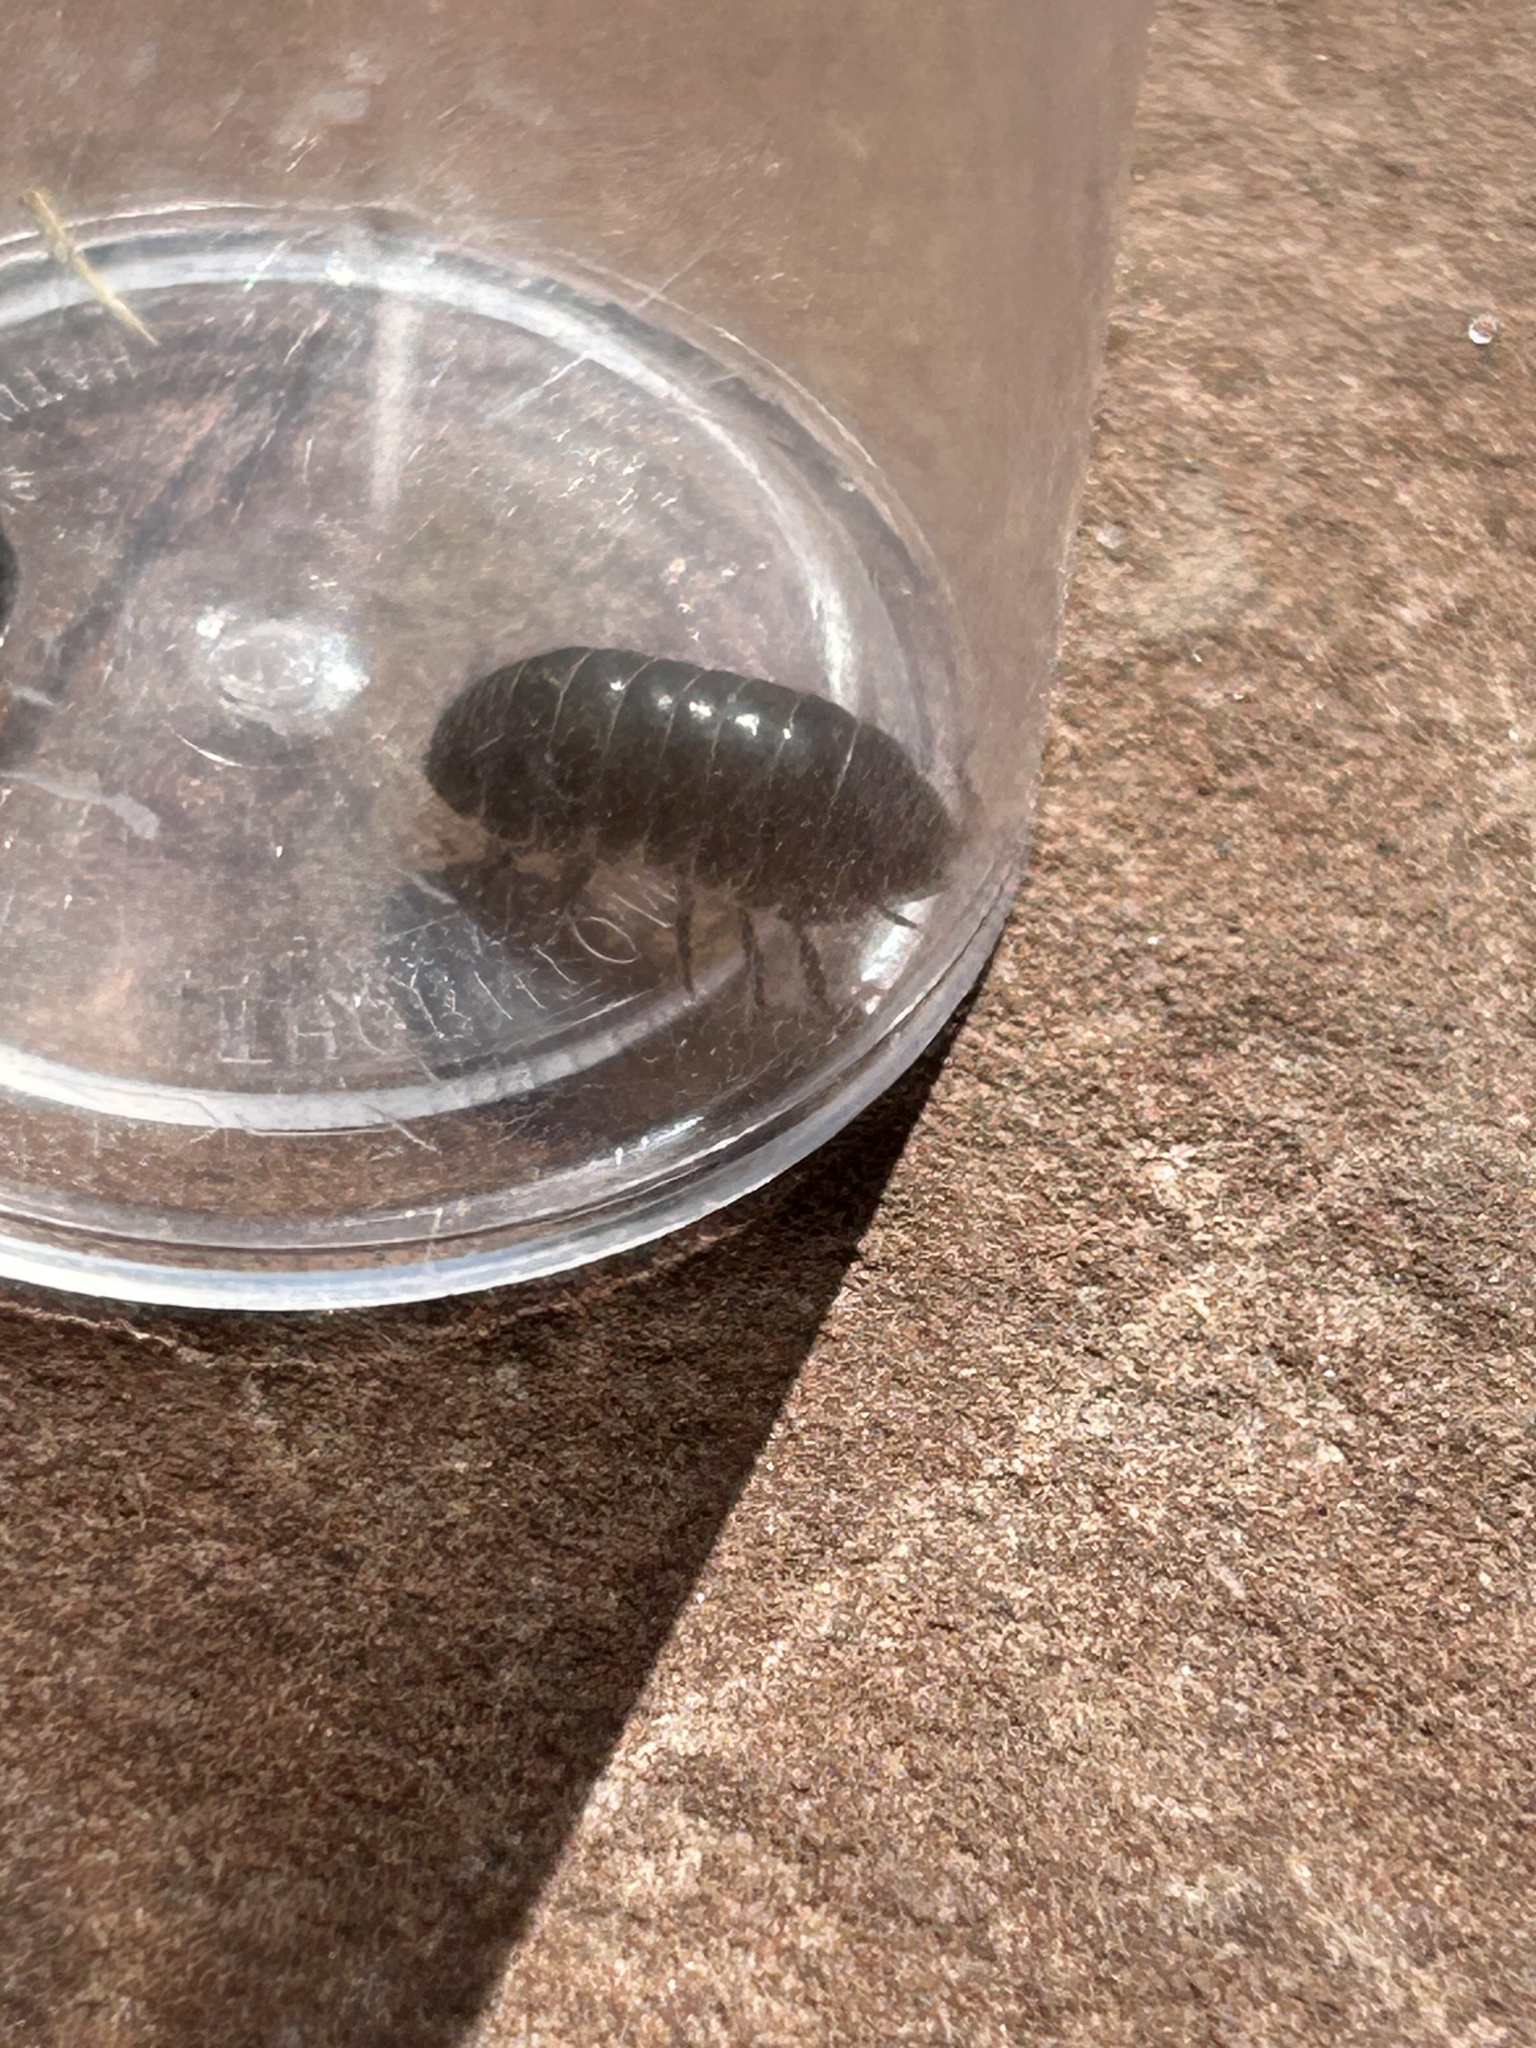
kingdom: Animalia
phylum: Arthropoda
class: Malacostraca
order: Isopoda
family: Armadillidiidae
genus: Armadillidium
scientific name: Armadillidium vulgare
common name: Common pill woodlouse
